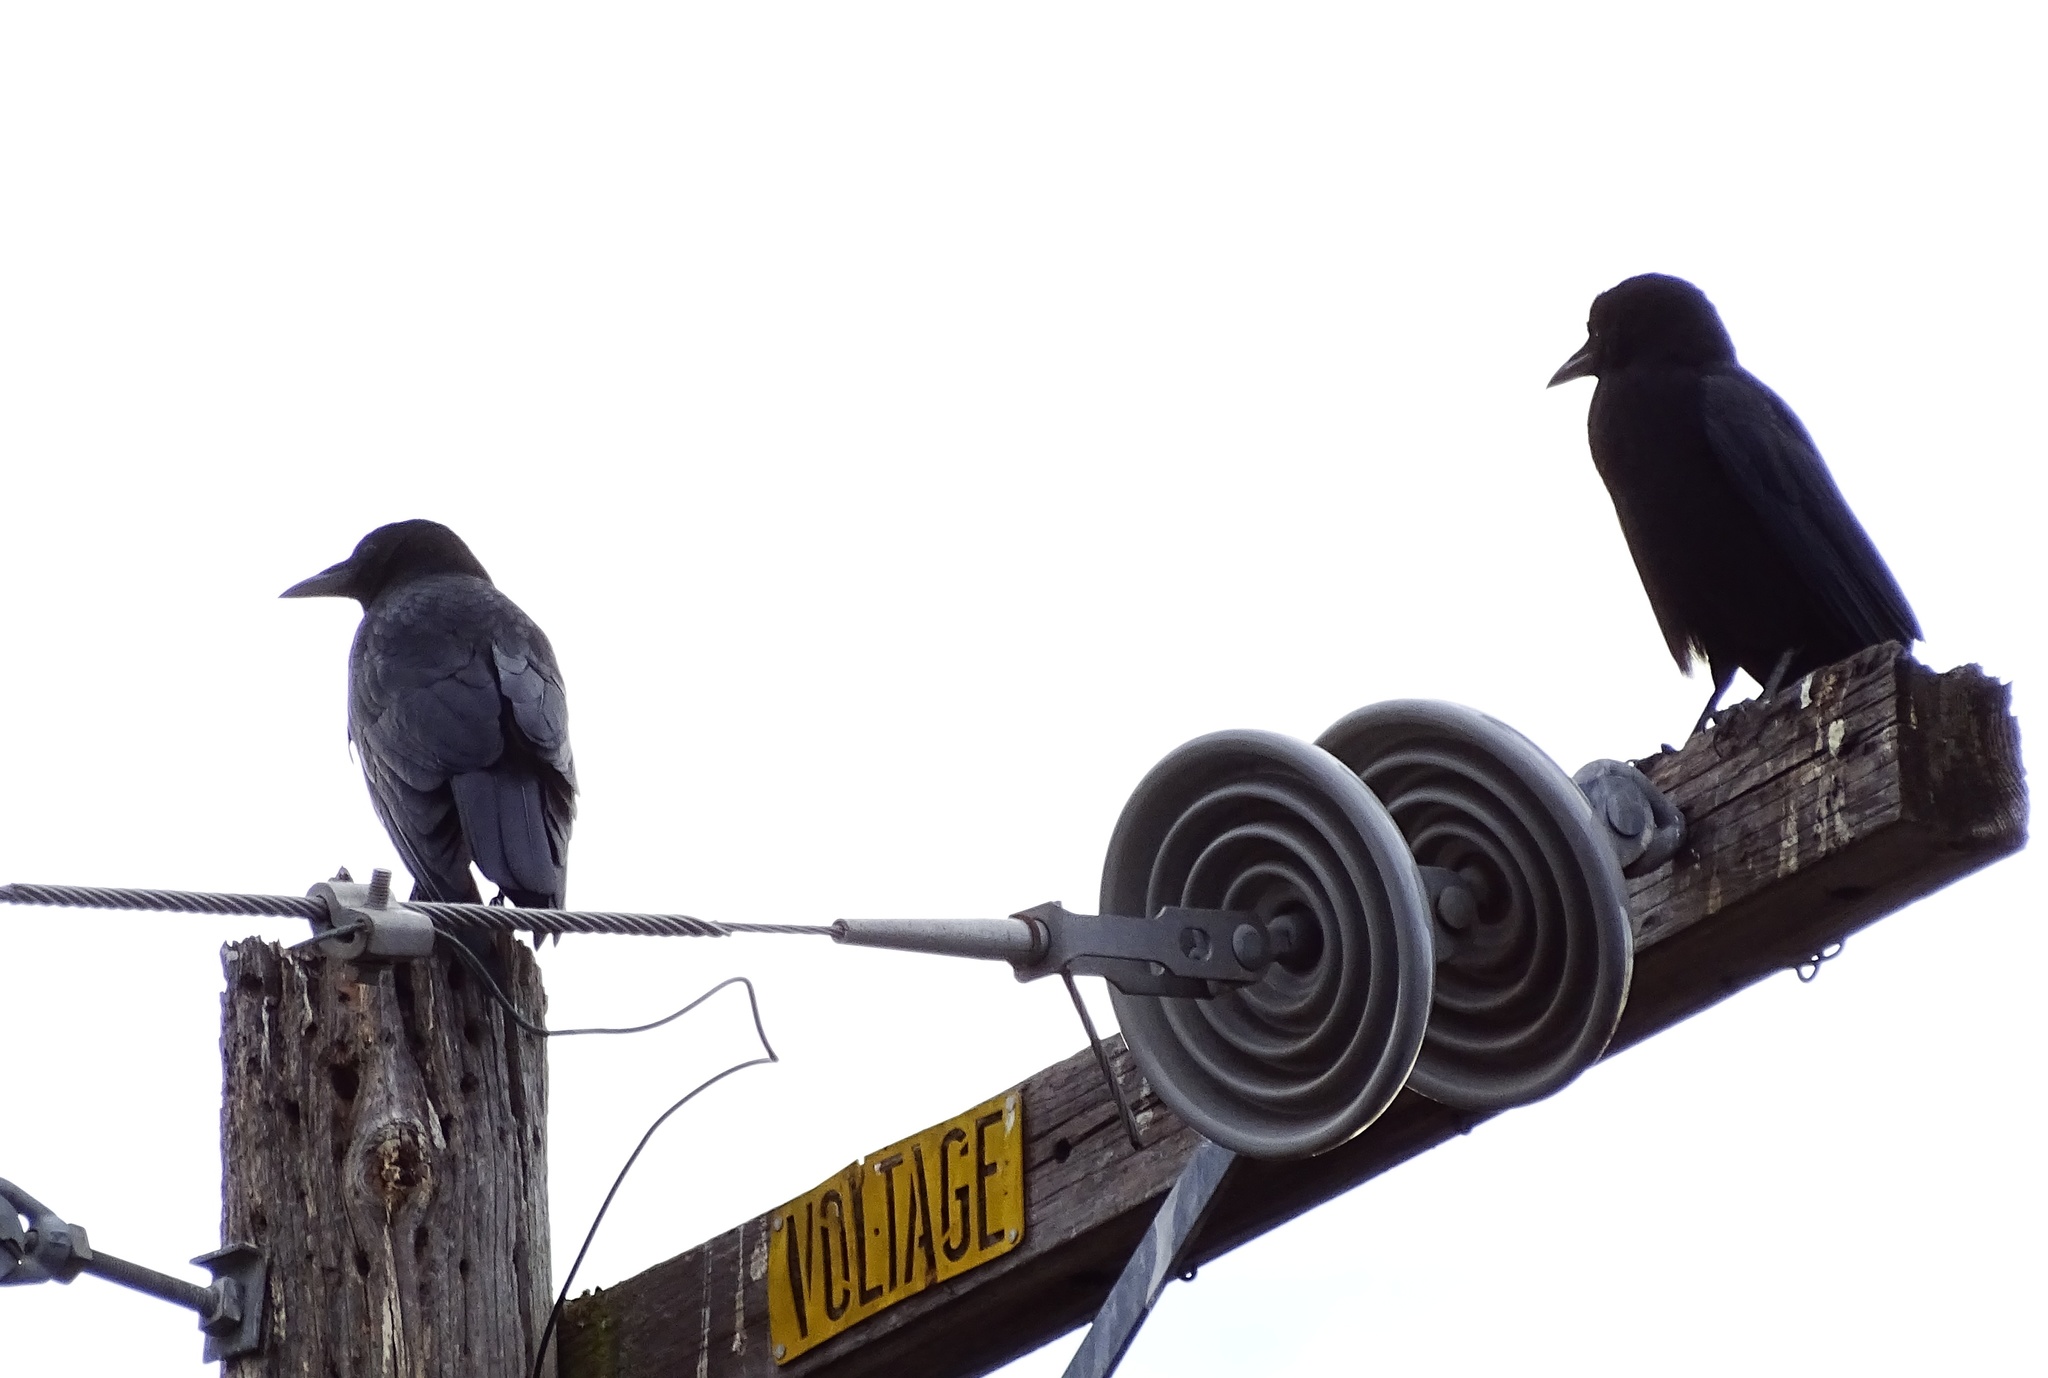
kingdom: Animalia
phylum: Chordata
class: Aves
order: Passeriformes
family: Corvidae
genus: Corvus
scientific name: Corvus brachyrhynchos
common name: American crow
